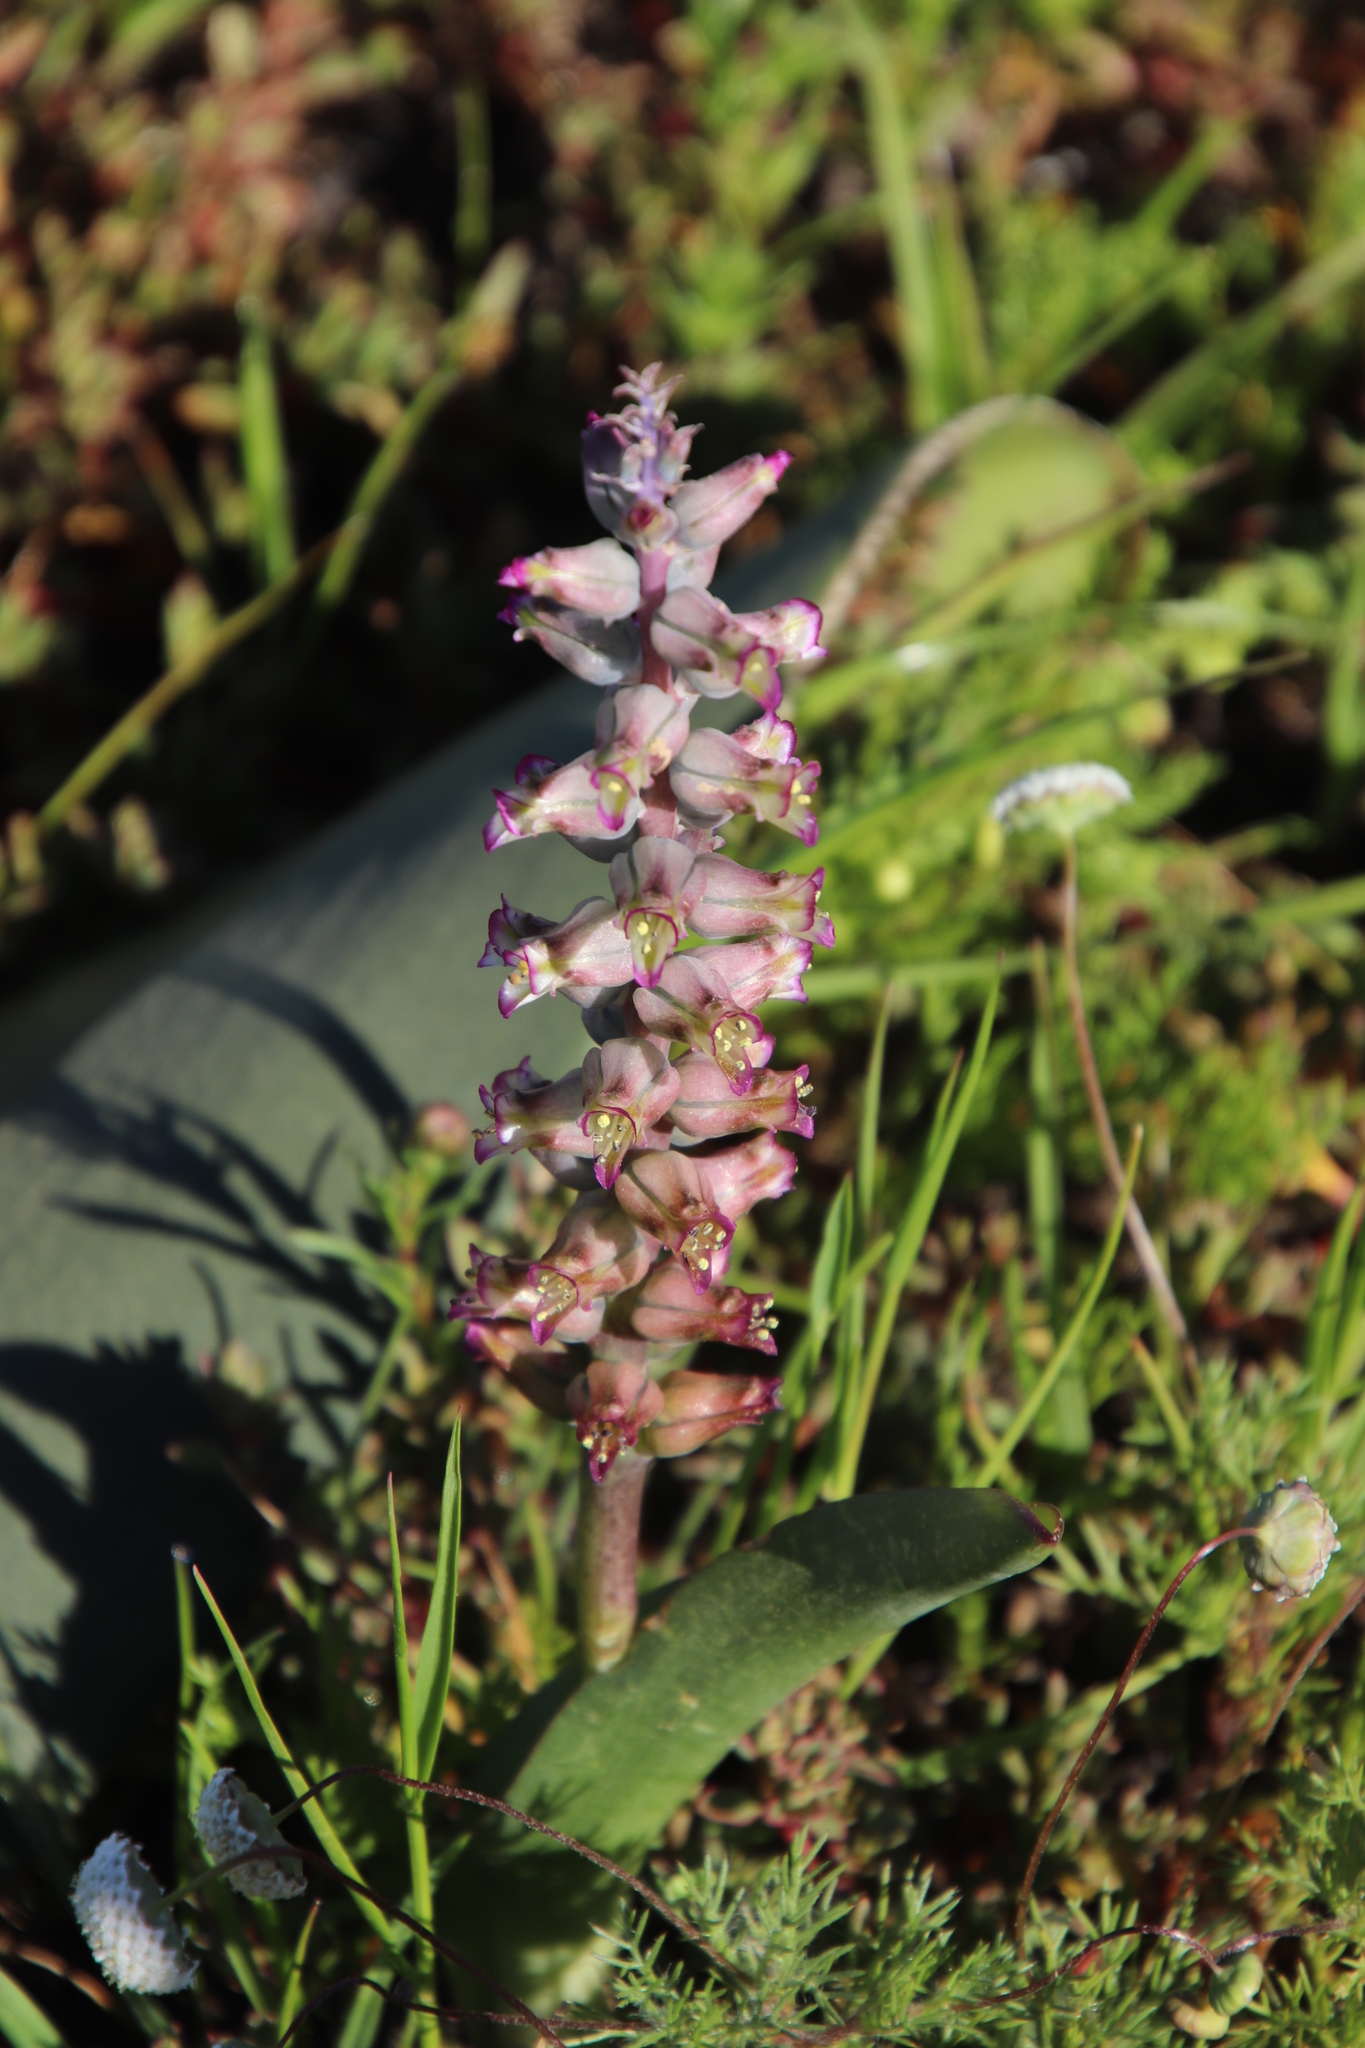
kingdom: Plantae
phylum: Tracheophyta
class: Liliopsida
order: Asparagales
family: Asparagaceae
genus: Lachenalia
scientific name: Lachenalia obscura
